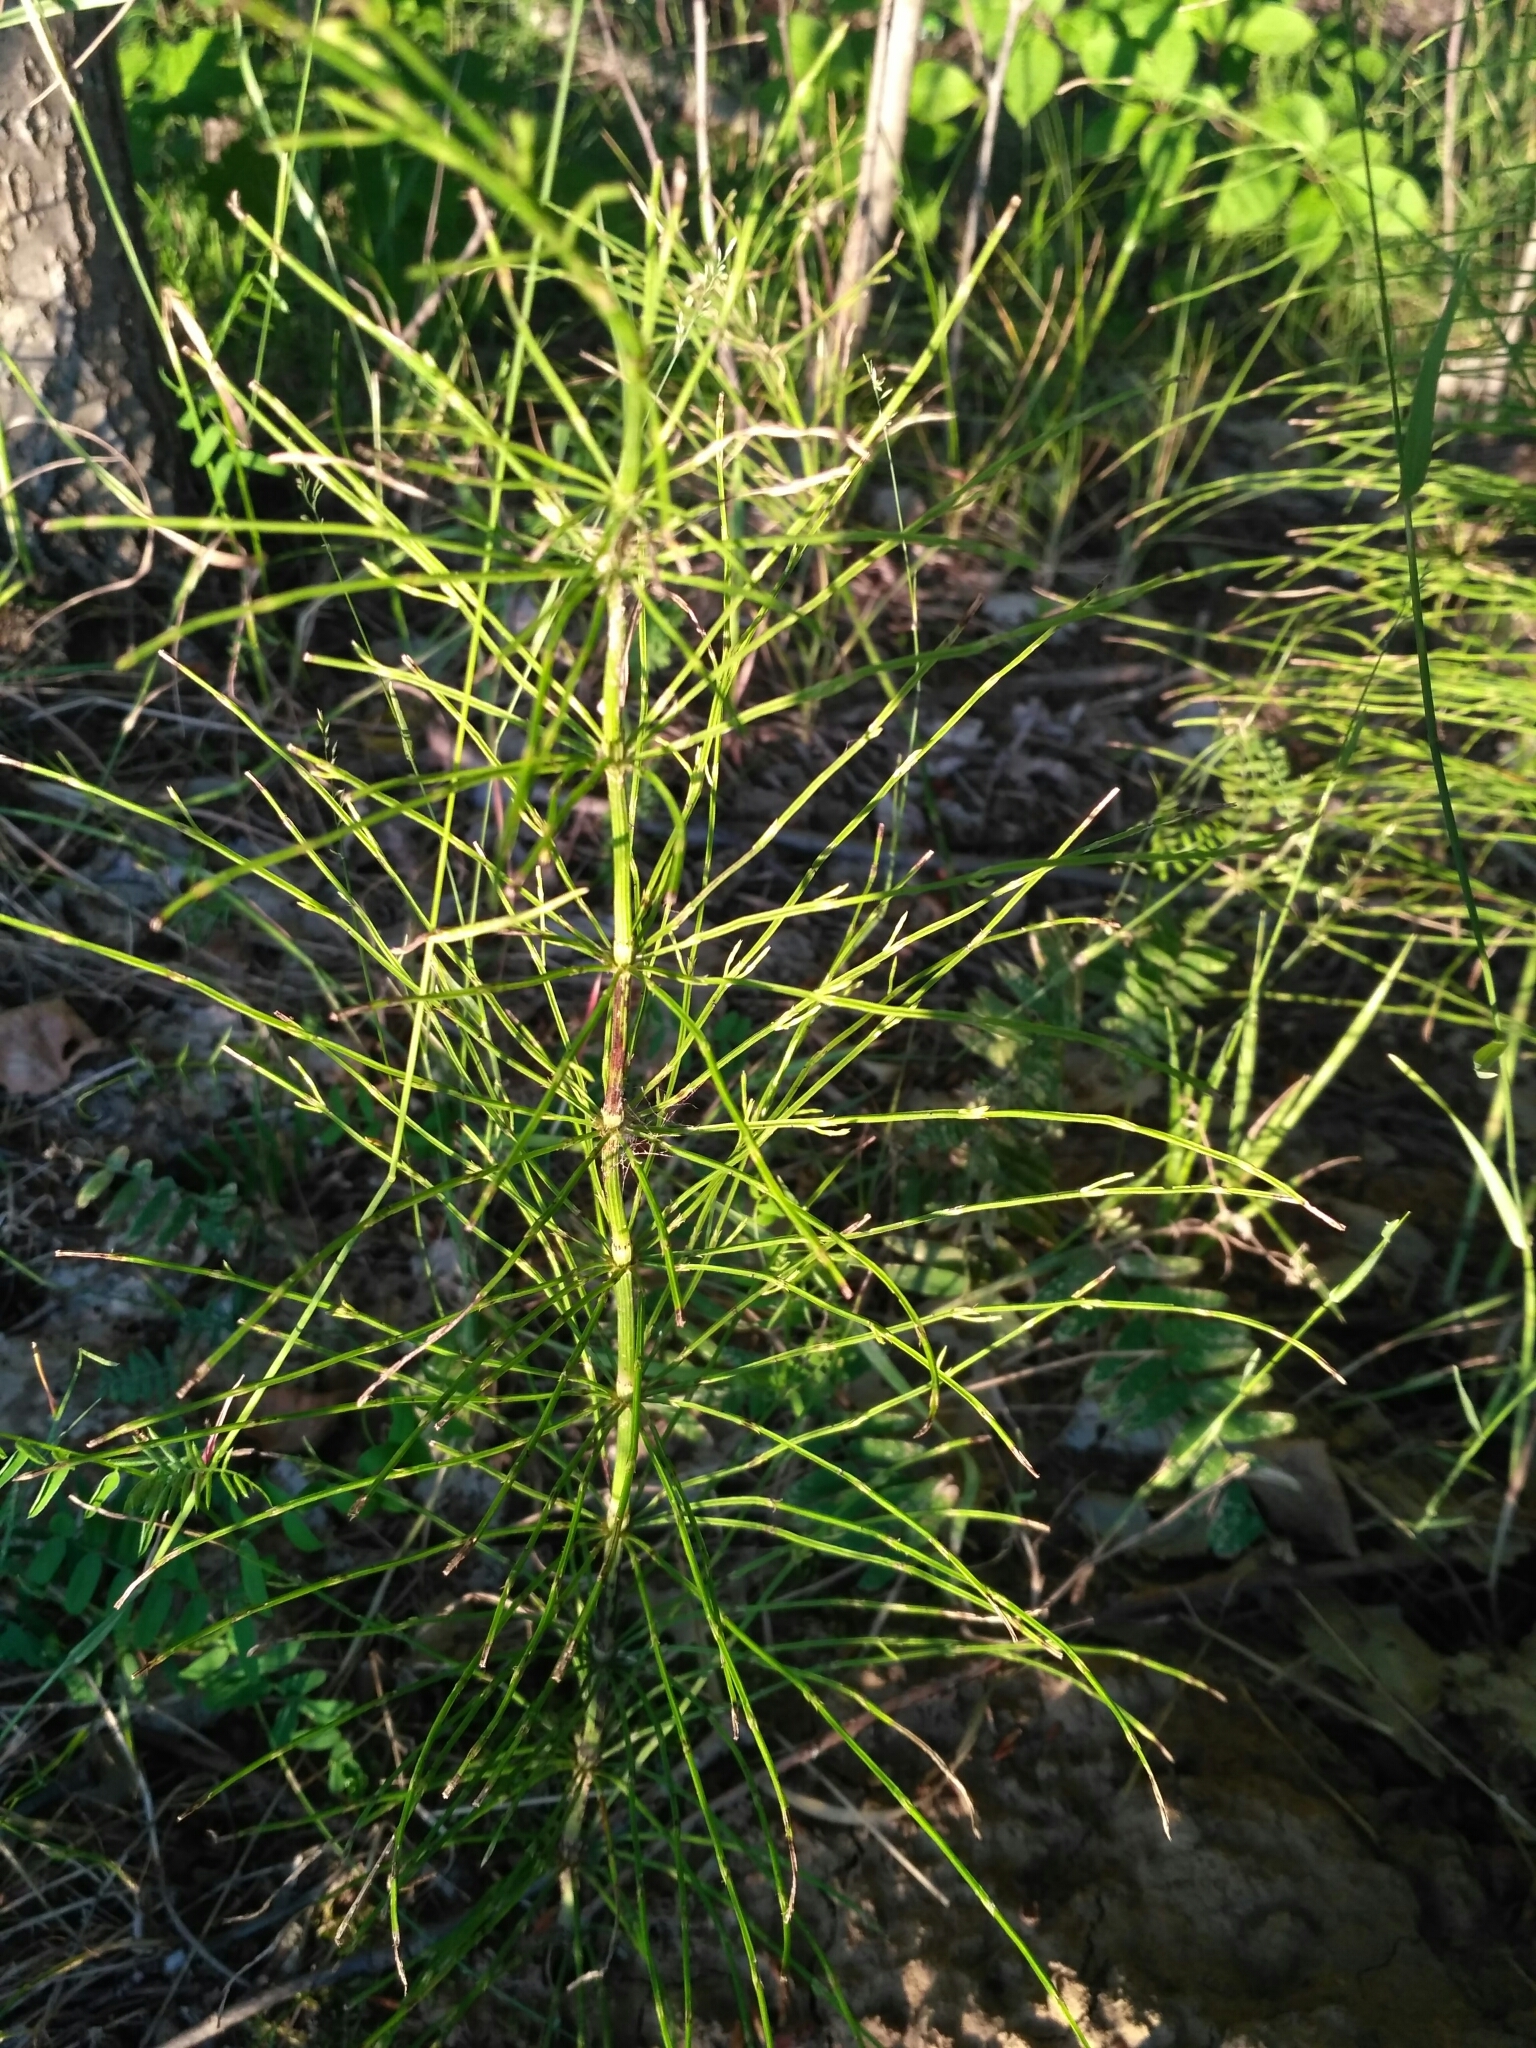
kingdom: Plantae
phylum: Tracheophyta
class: Polypodiopsida
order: Equisetales
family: Equisetaceae
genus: Equisetum
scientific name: Equisetum arvense
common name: Field horsetail
